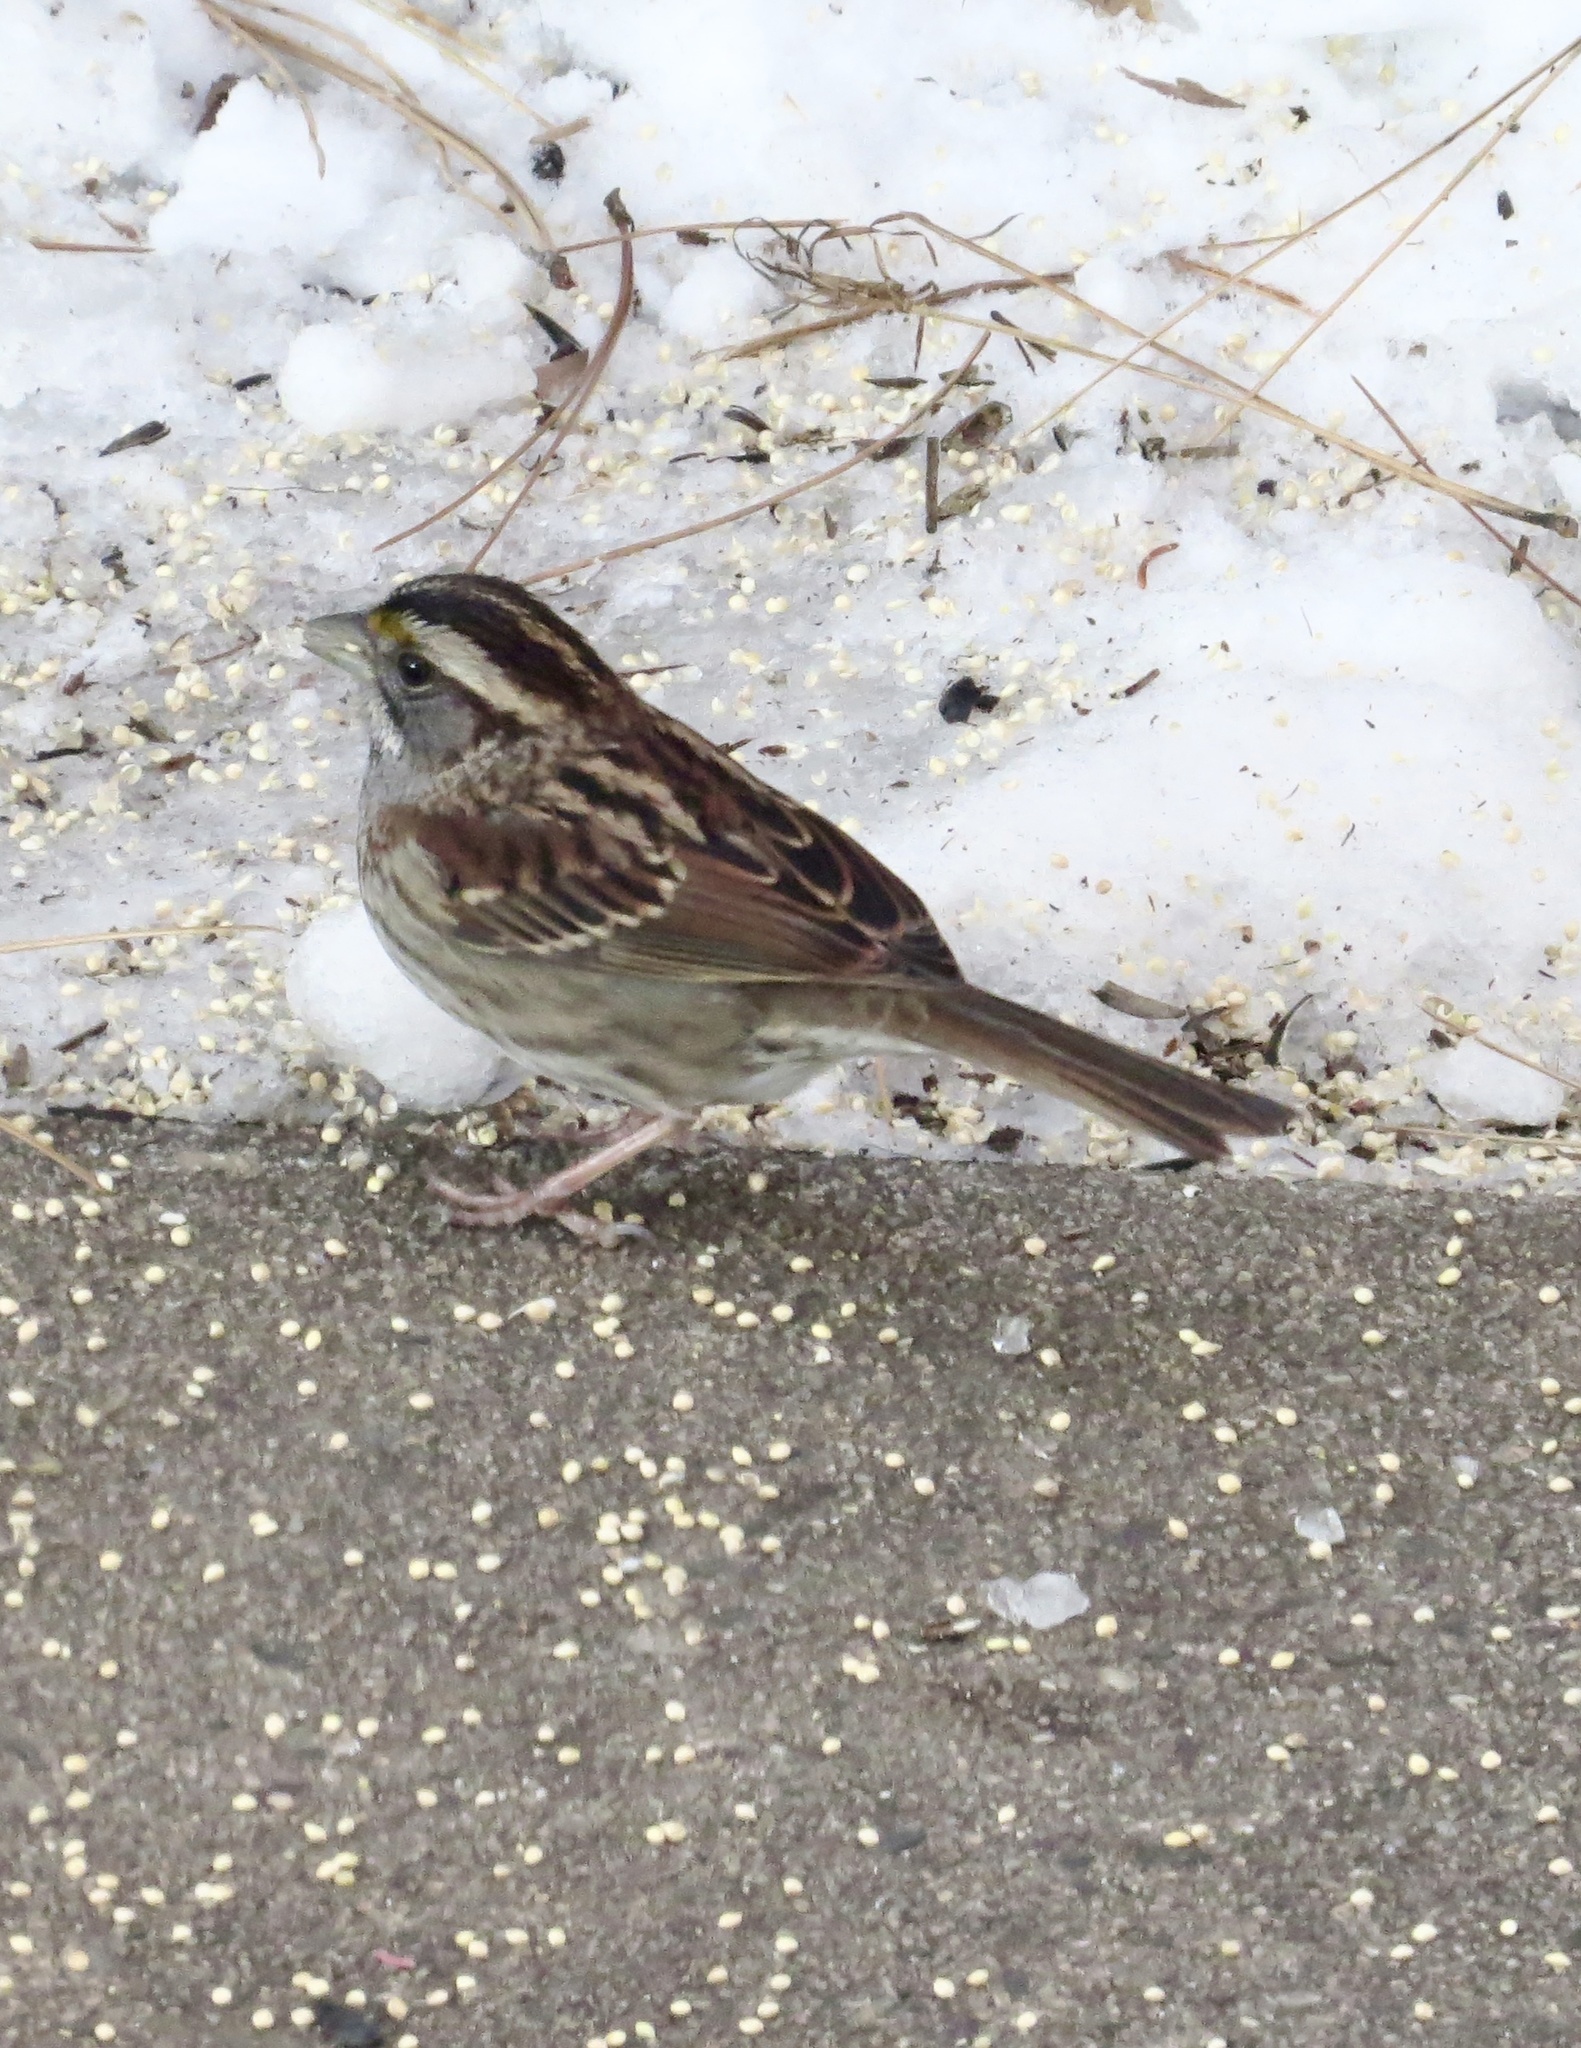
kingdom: Animalia
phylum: Chordata
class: Aves
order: Passeriformes
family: Passerellidae
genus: Zonotrichia
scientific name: Zonotrichia albicollis
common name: White-throated sparrow
